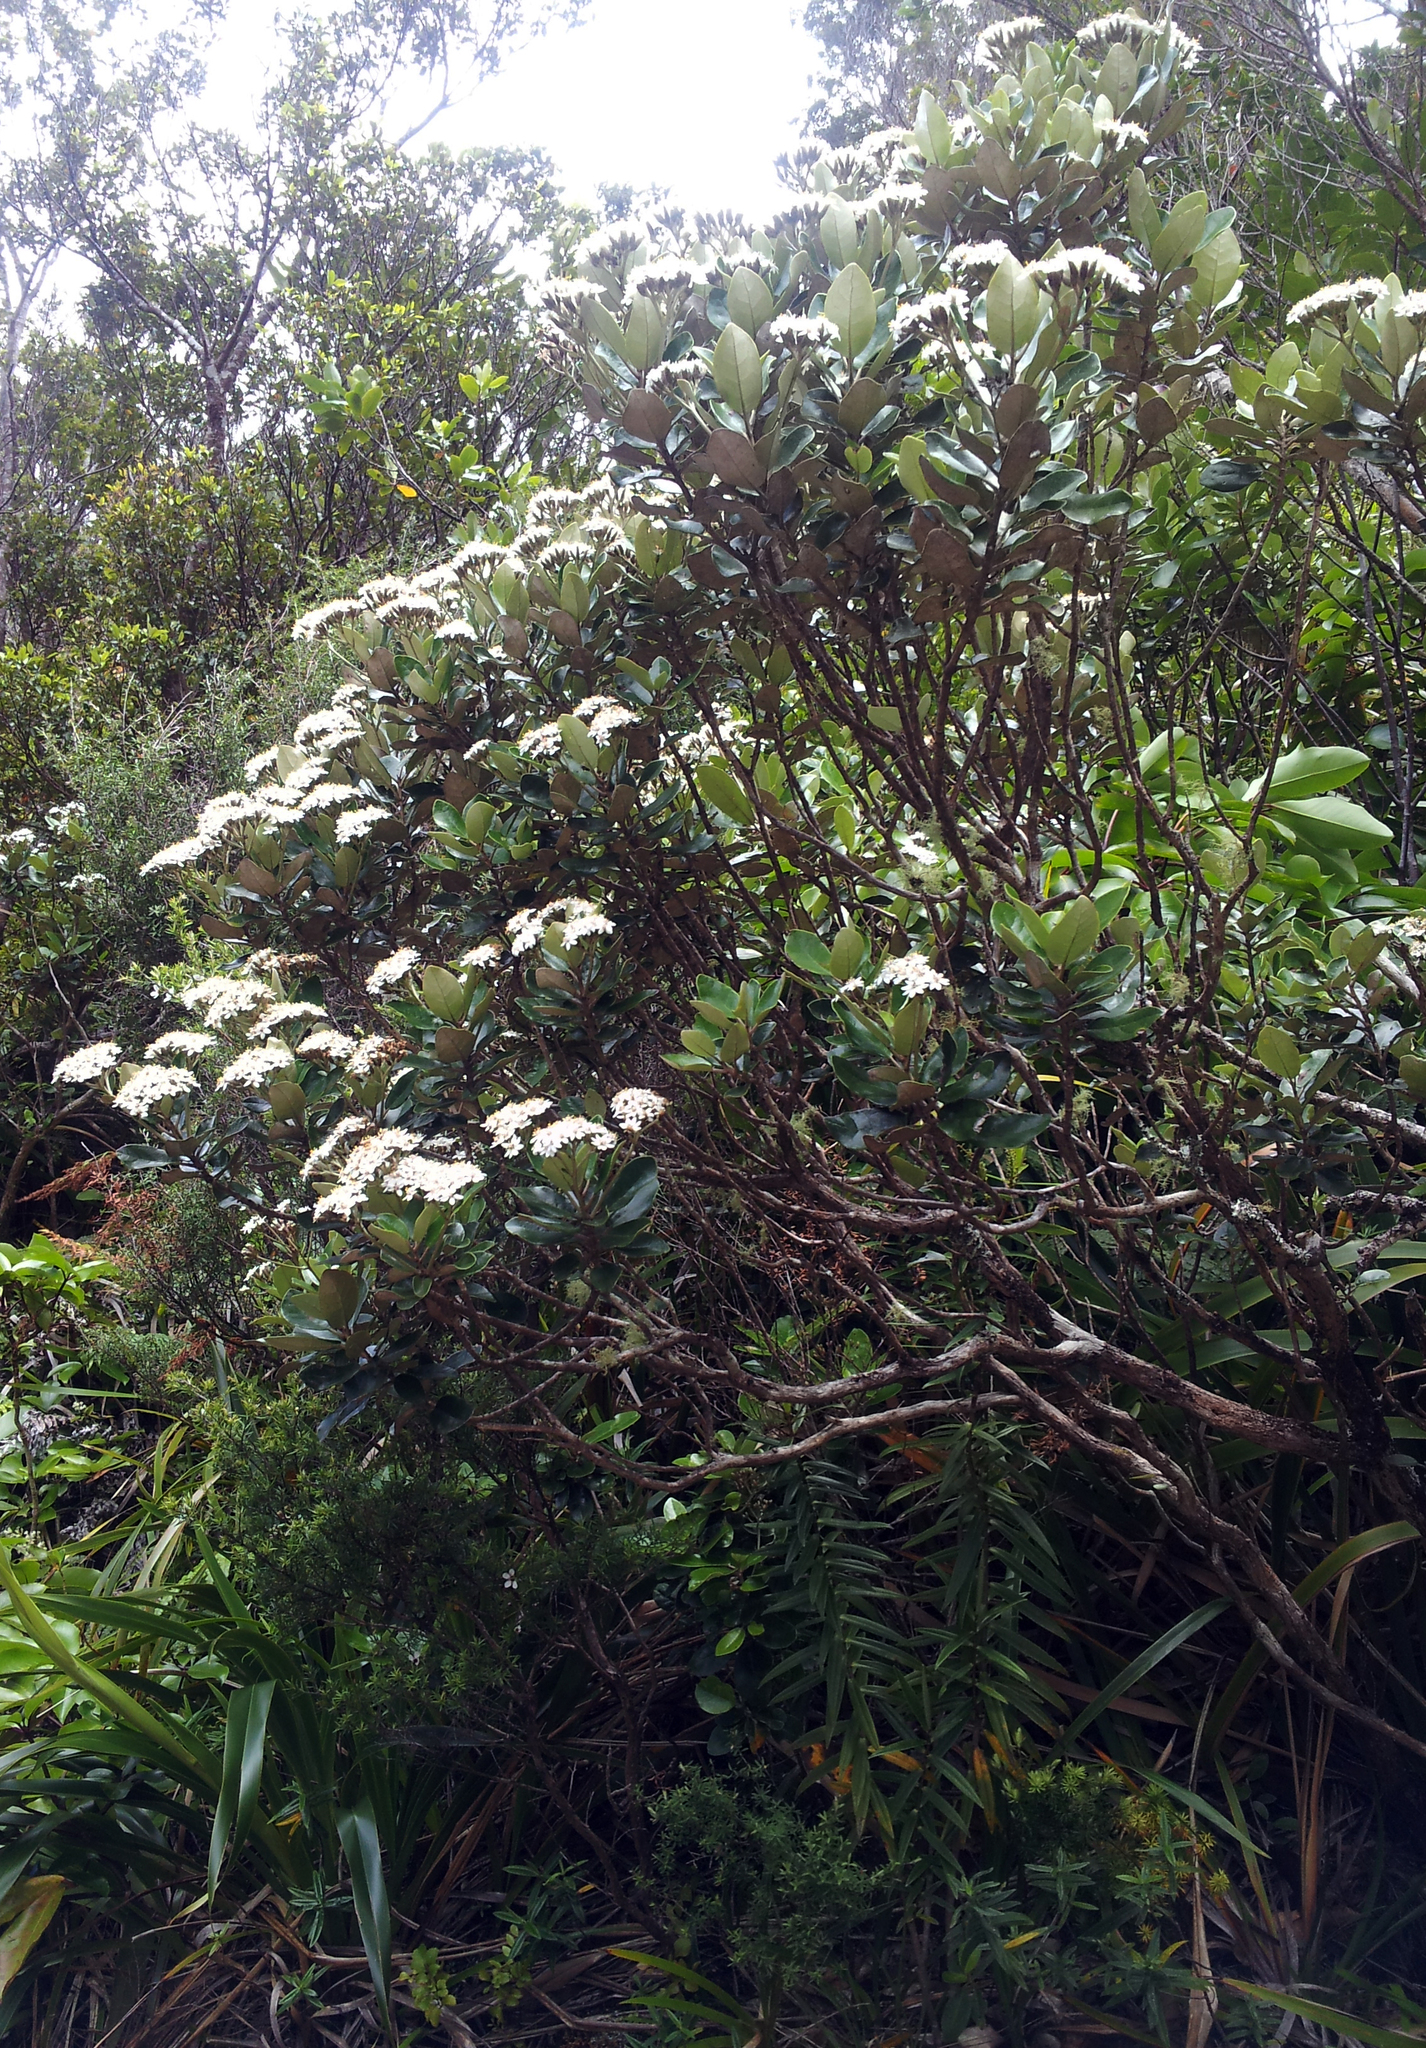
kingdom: Plantae
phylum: Tracheophyta
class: Magnoliopsida
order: Asterales
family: Asteraceae
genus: Olearia
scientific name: Olearia townsonii
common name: Coromandel tree daisy
